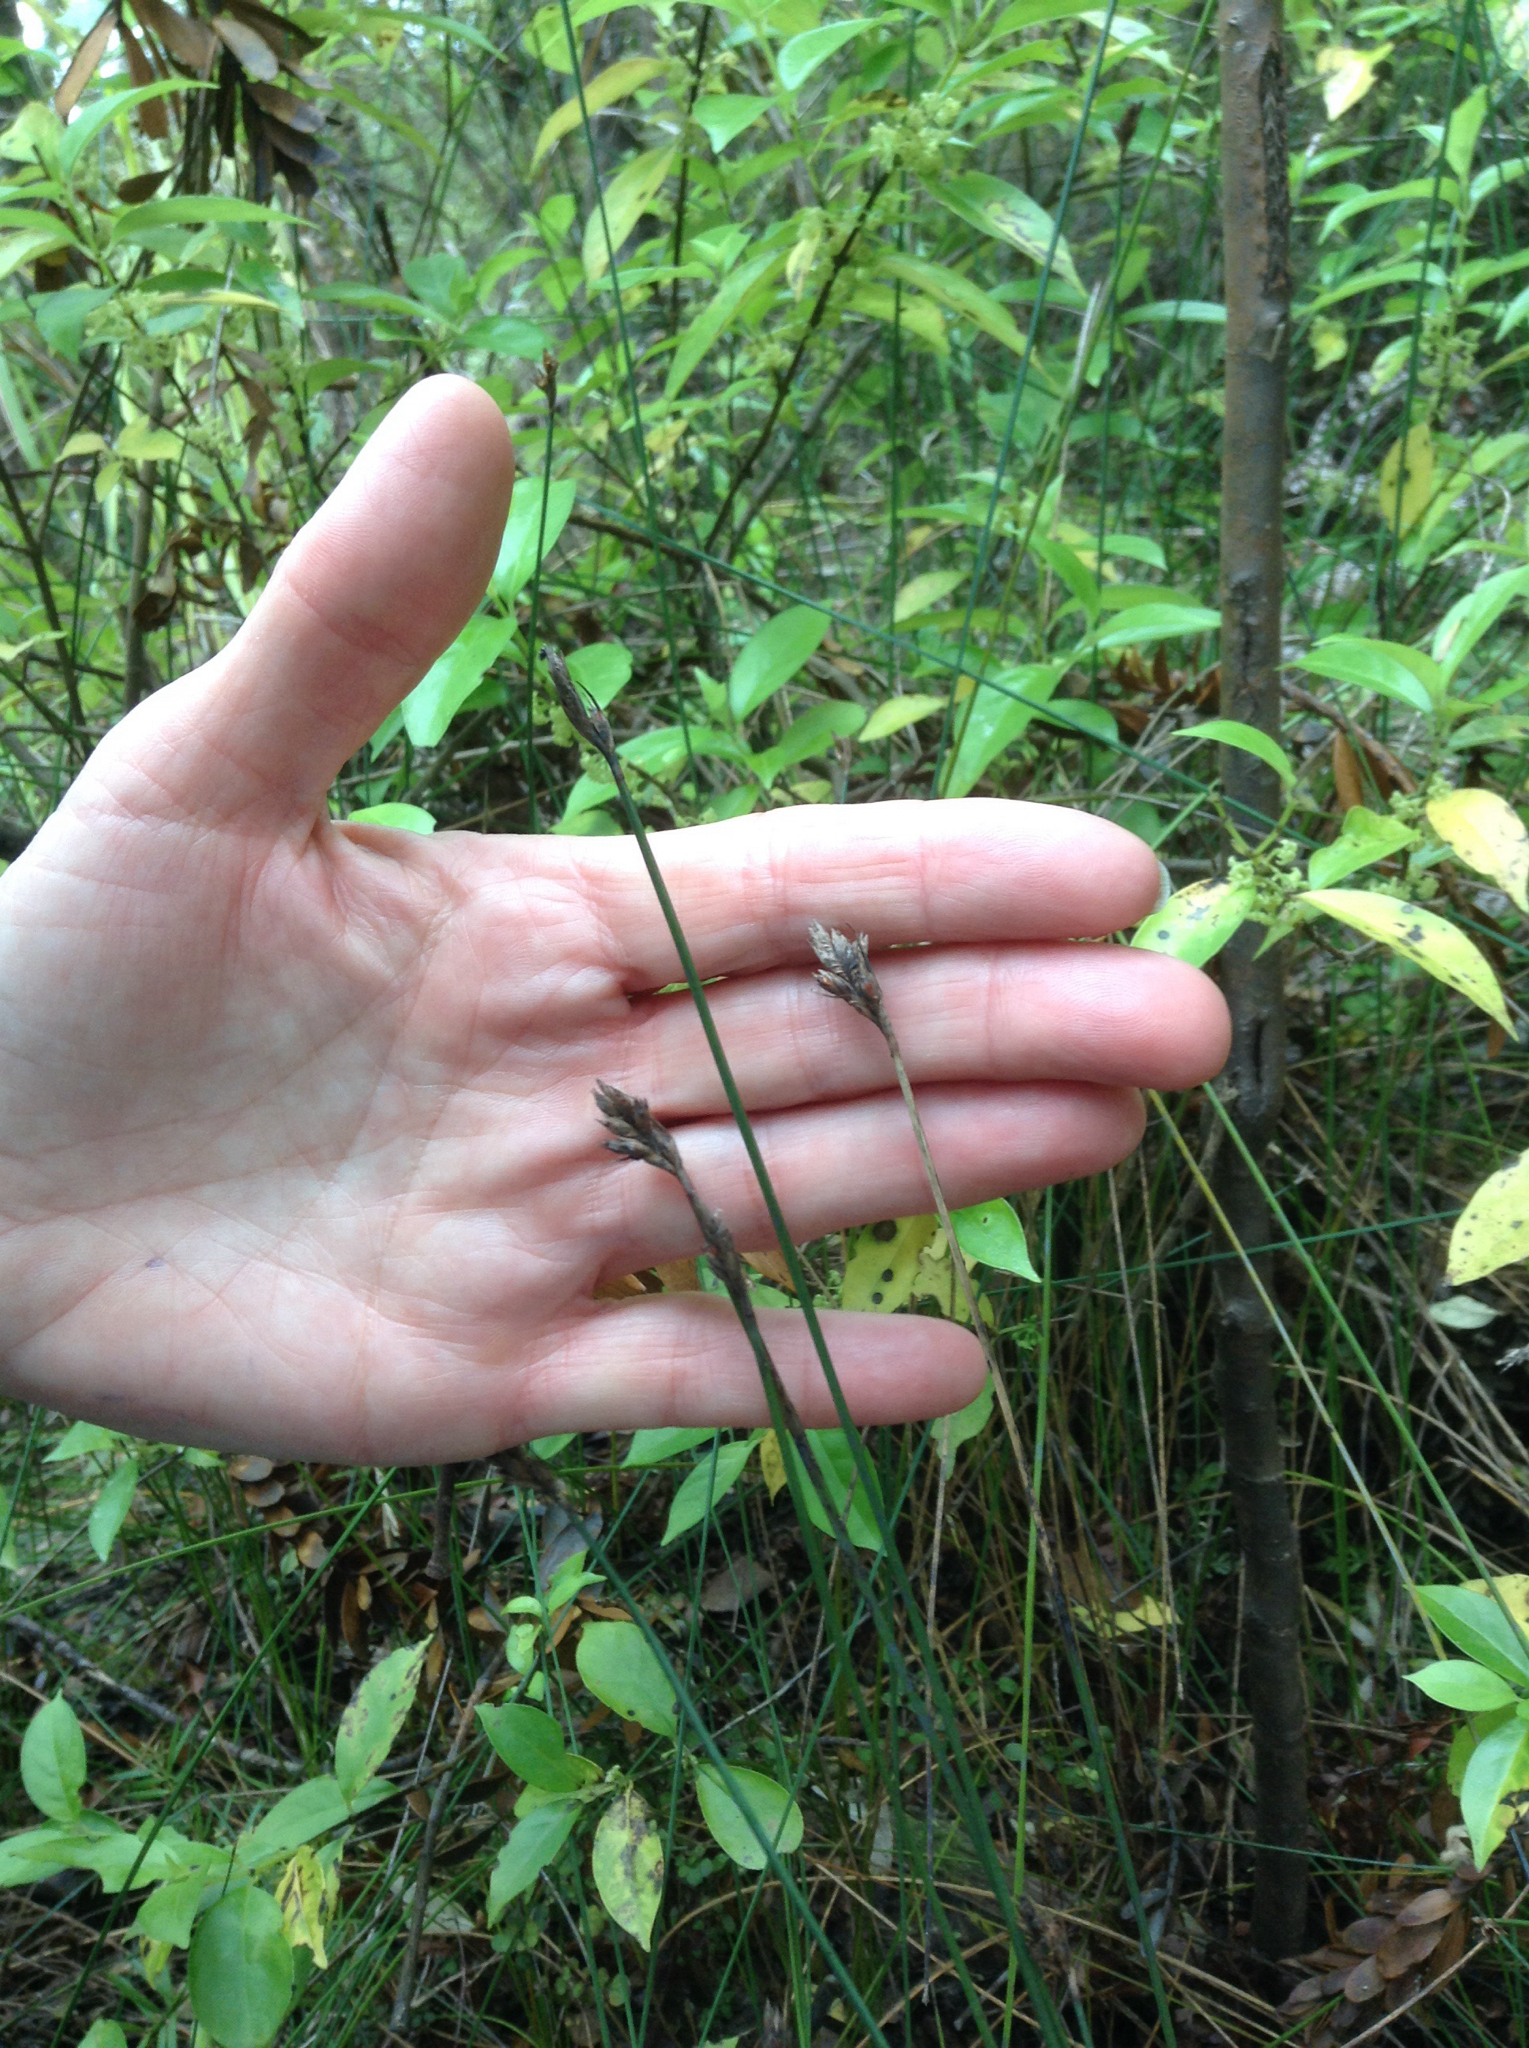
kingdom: Plantae
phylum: Tracheophyta
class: Liliopsida
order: Poales
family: Cyperaceae
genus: Lepidosperma
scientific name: Lepidosperma australe
